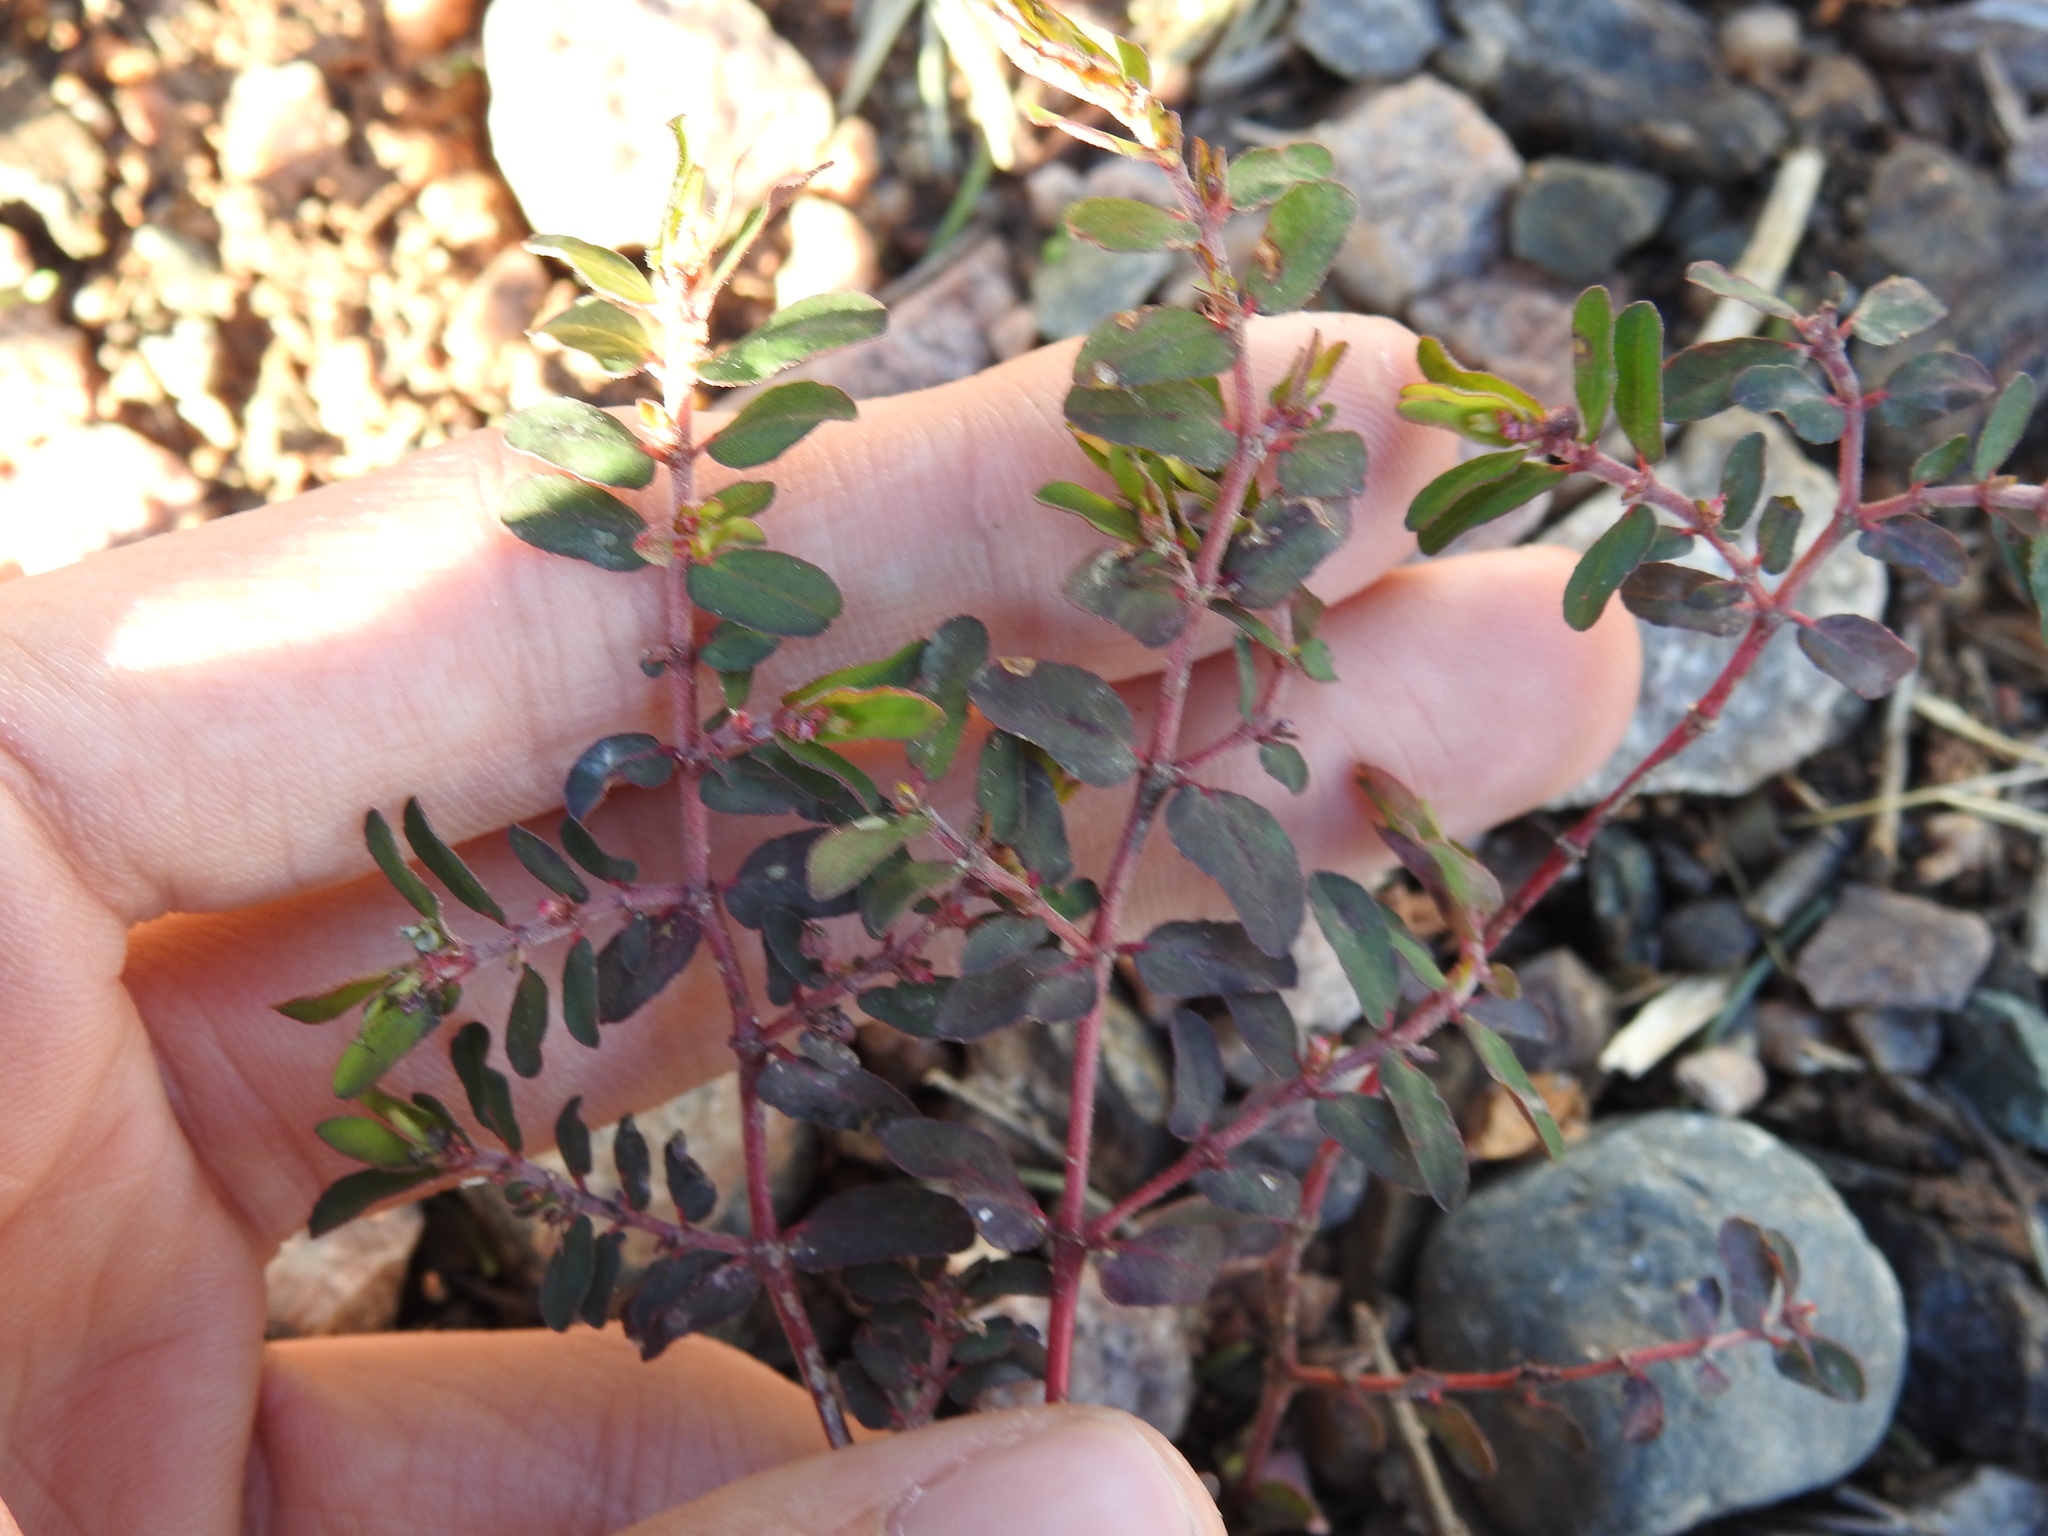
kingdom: Plantae
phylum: Tracheophyta
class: Magnoliopsida
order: Malpighiales
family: Euphorbiaceae
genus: Euphorbia
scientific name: Euphorbia maculata
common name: Spotted spurge
